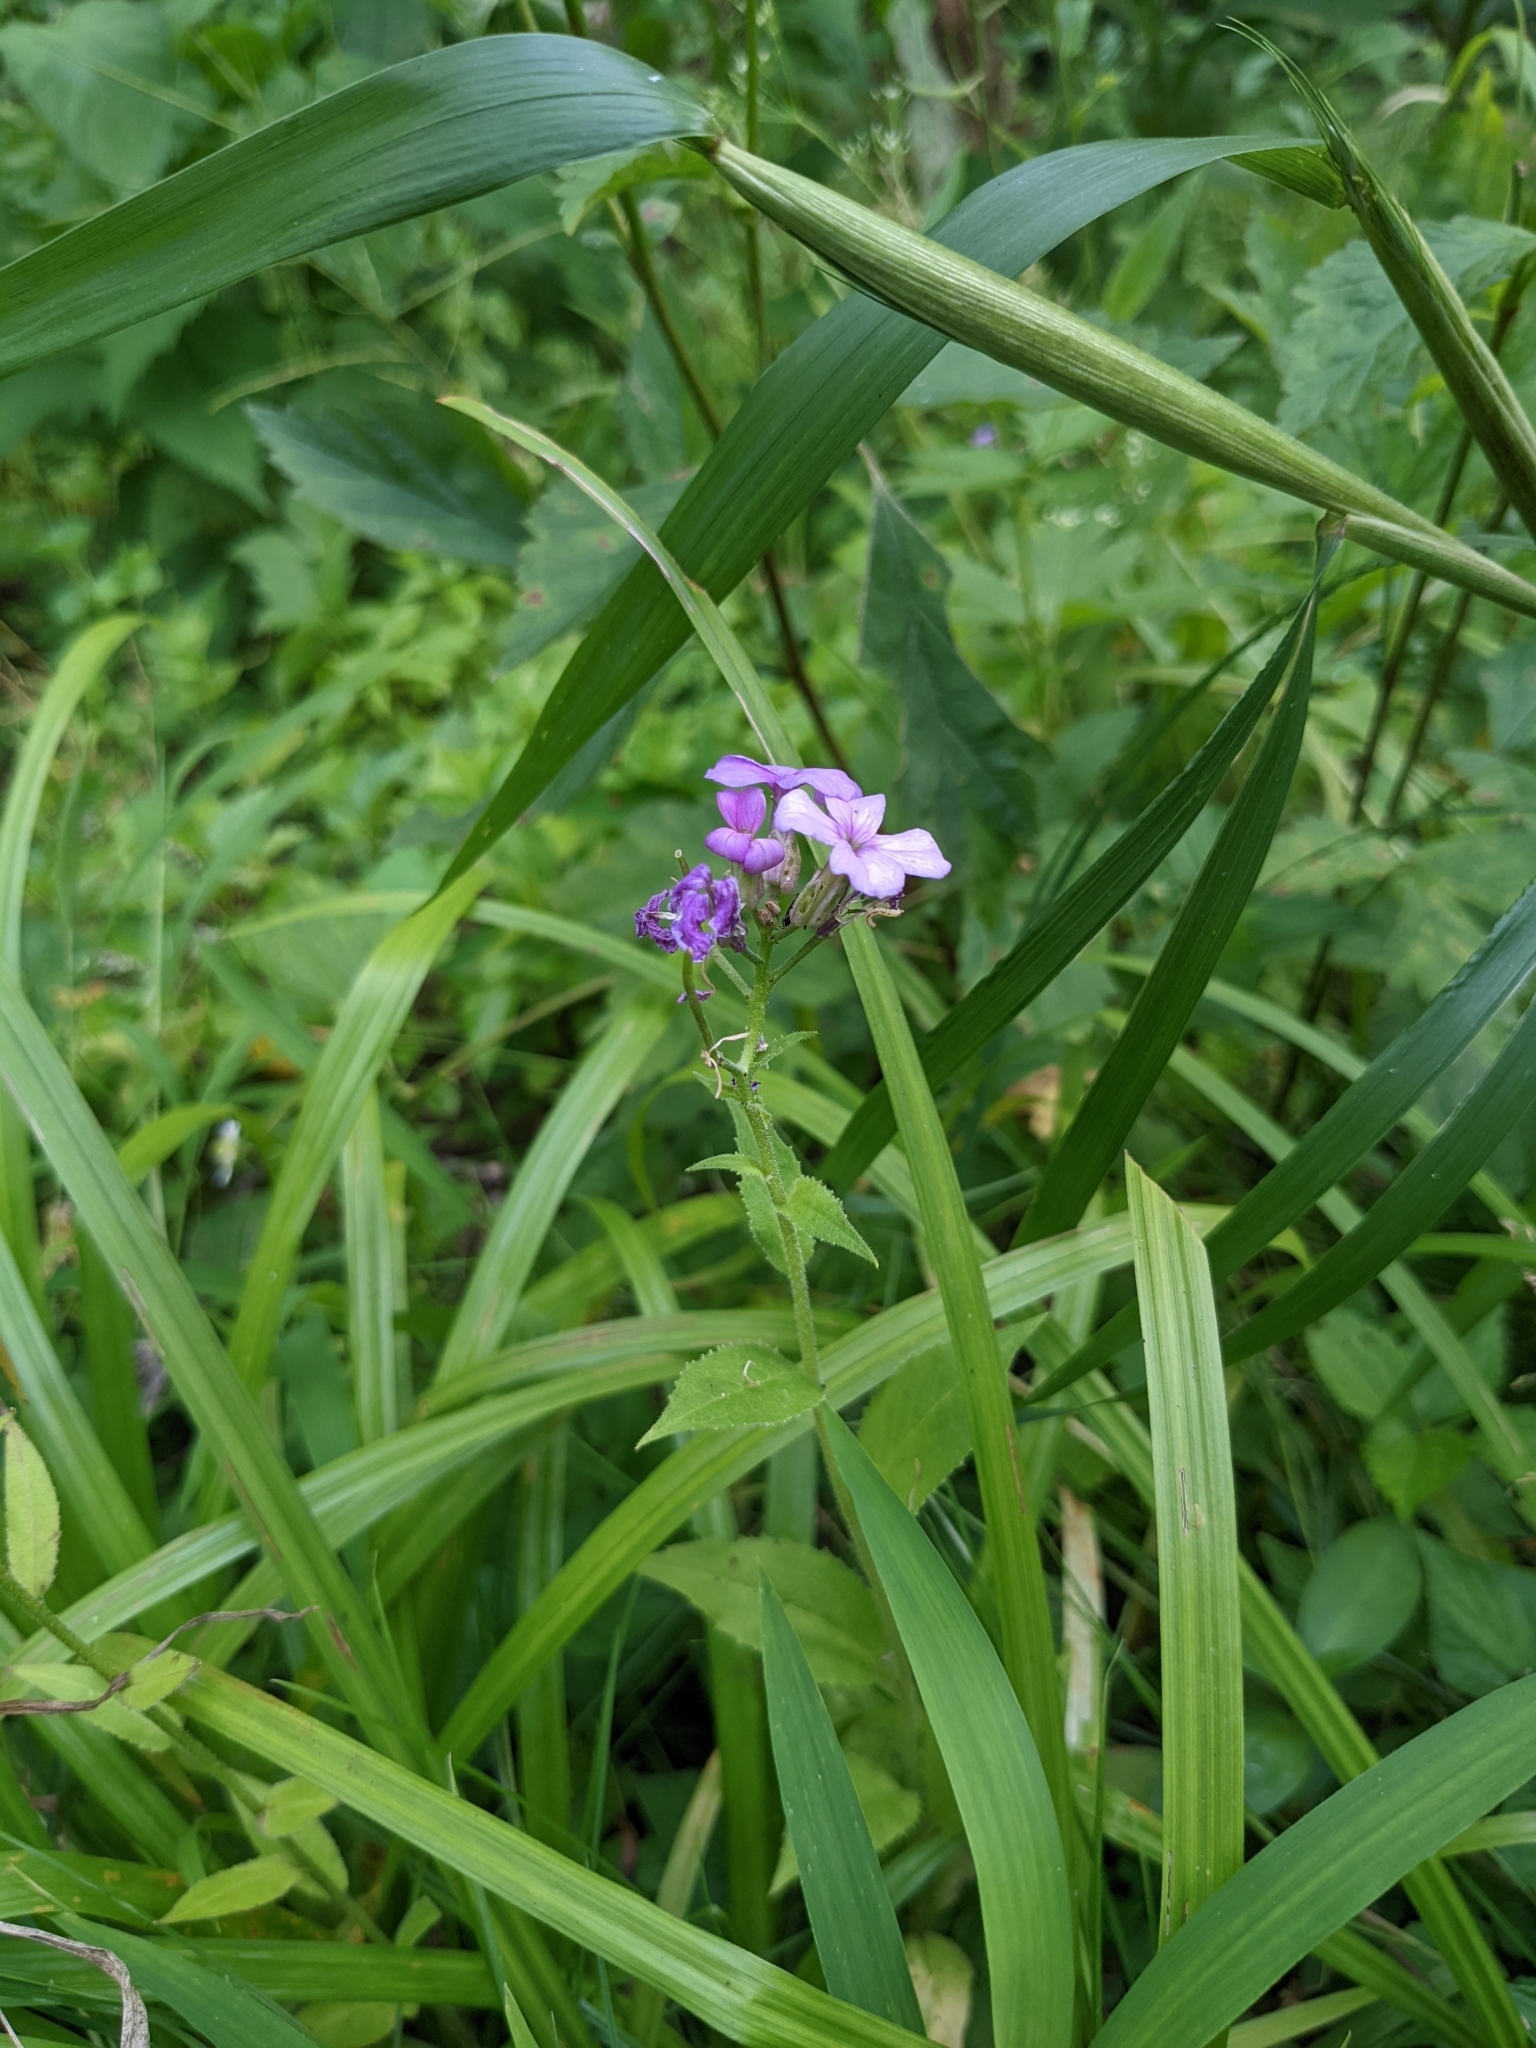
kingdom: Plantae
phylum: Tracheophyta
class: Magnoliopsida
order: Brassicales
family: Brassicaceae
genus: Hesperis
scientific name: Hesperis matronalis
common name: Dame's-violet
